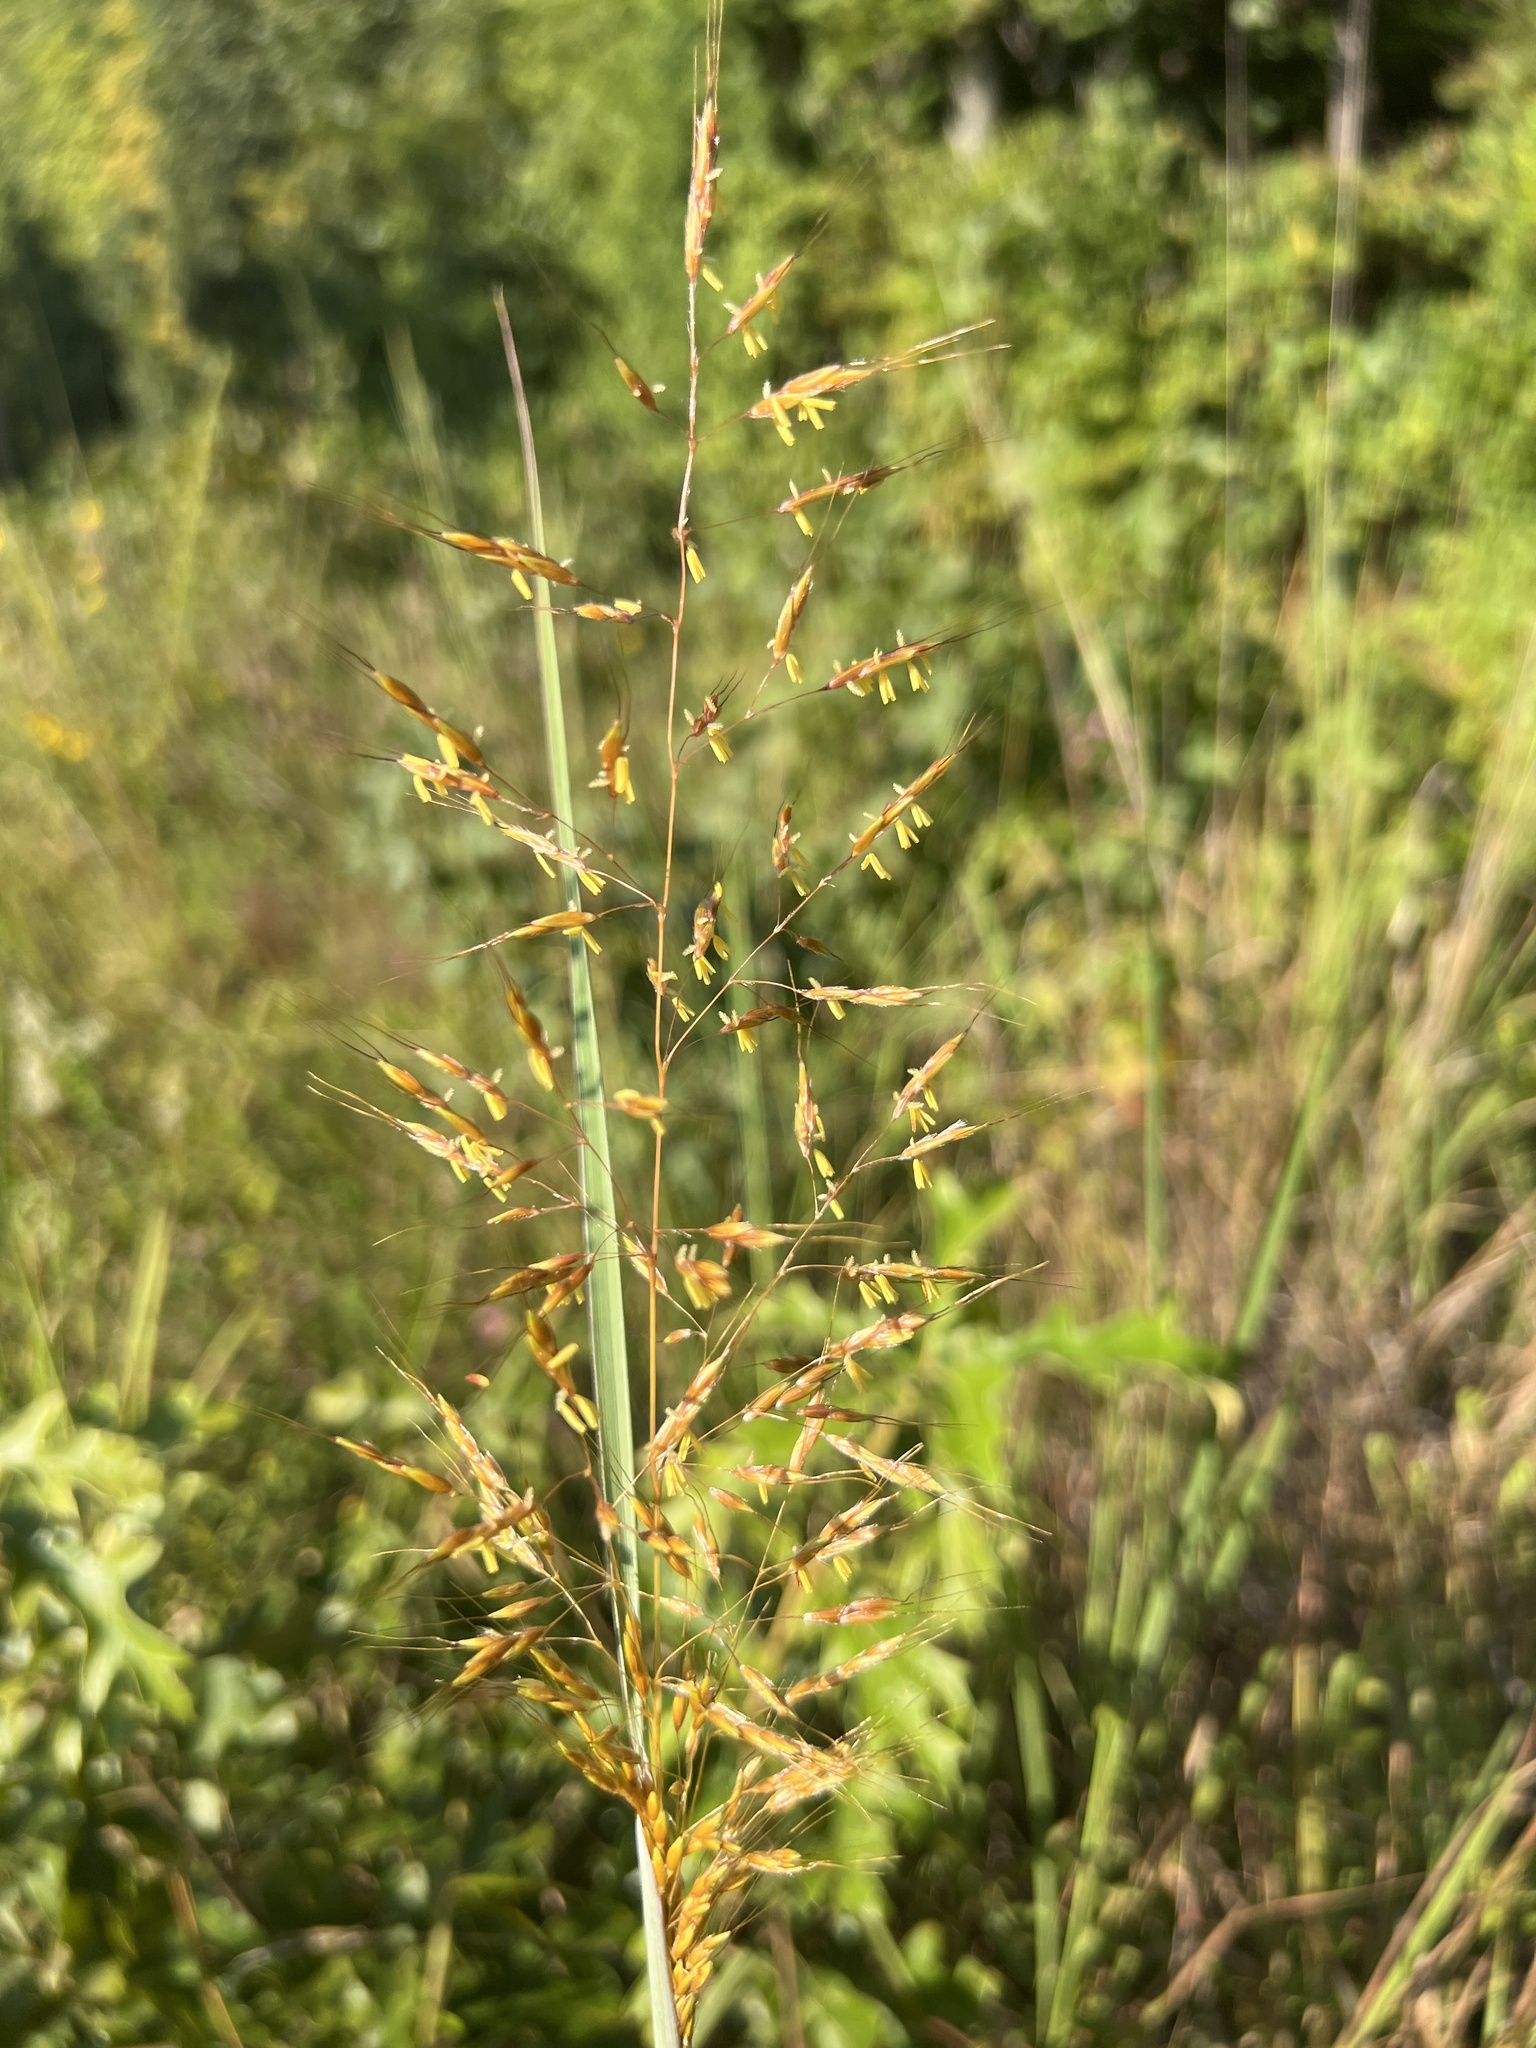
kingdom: Plantae
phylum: Tracheophyta
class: Liliopsida
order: Poales
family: Poaceae
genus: Sorghastrum
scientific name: Sorghastrum nutans
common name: Indian grass
